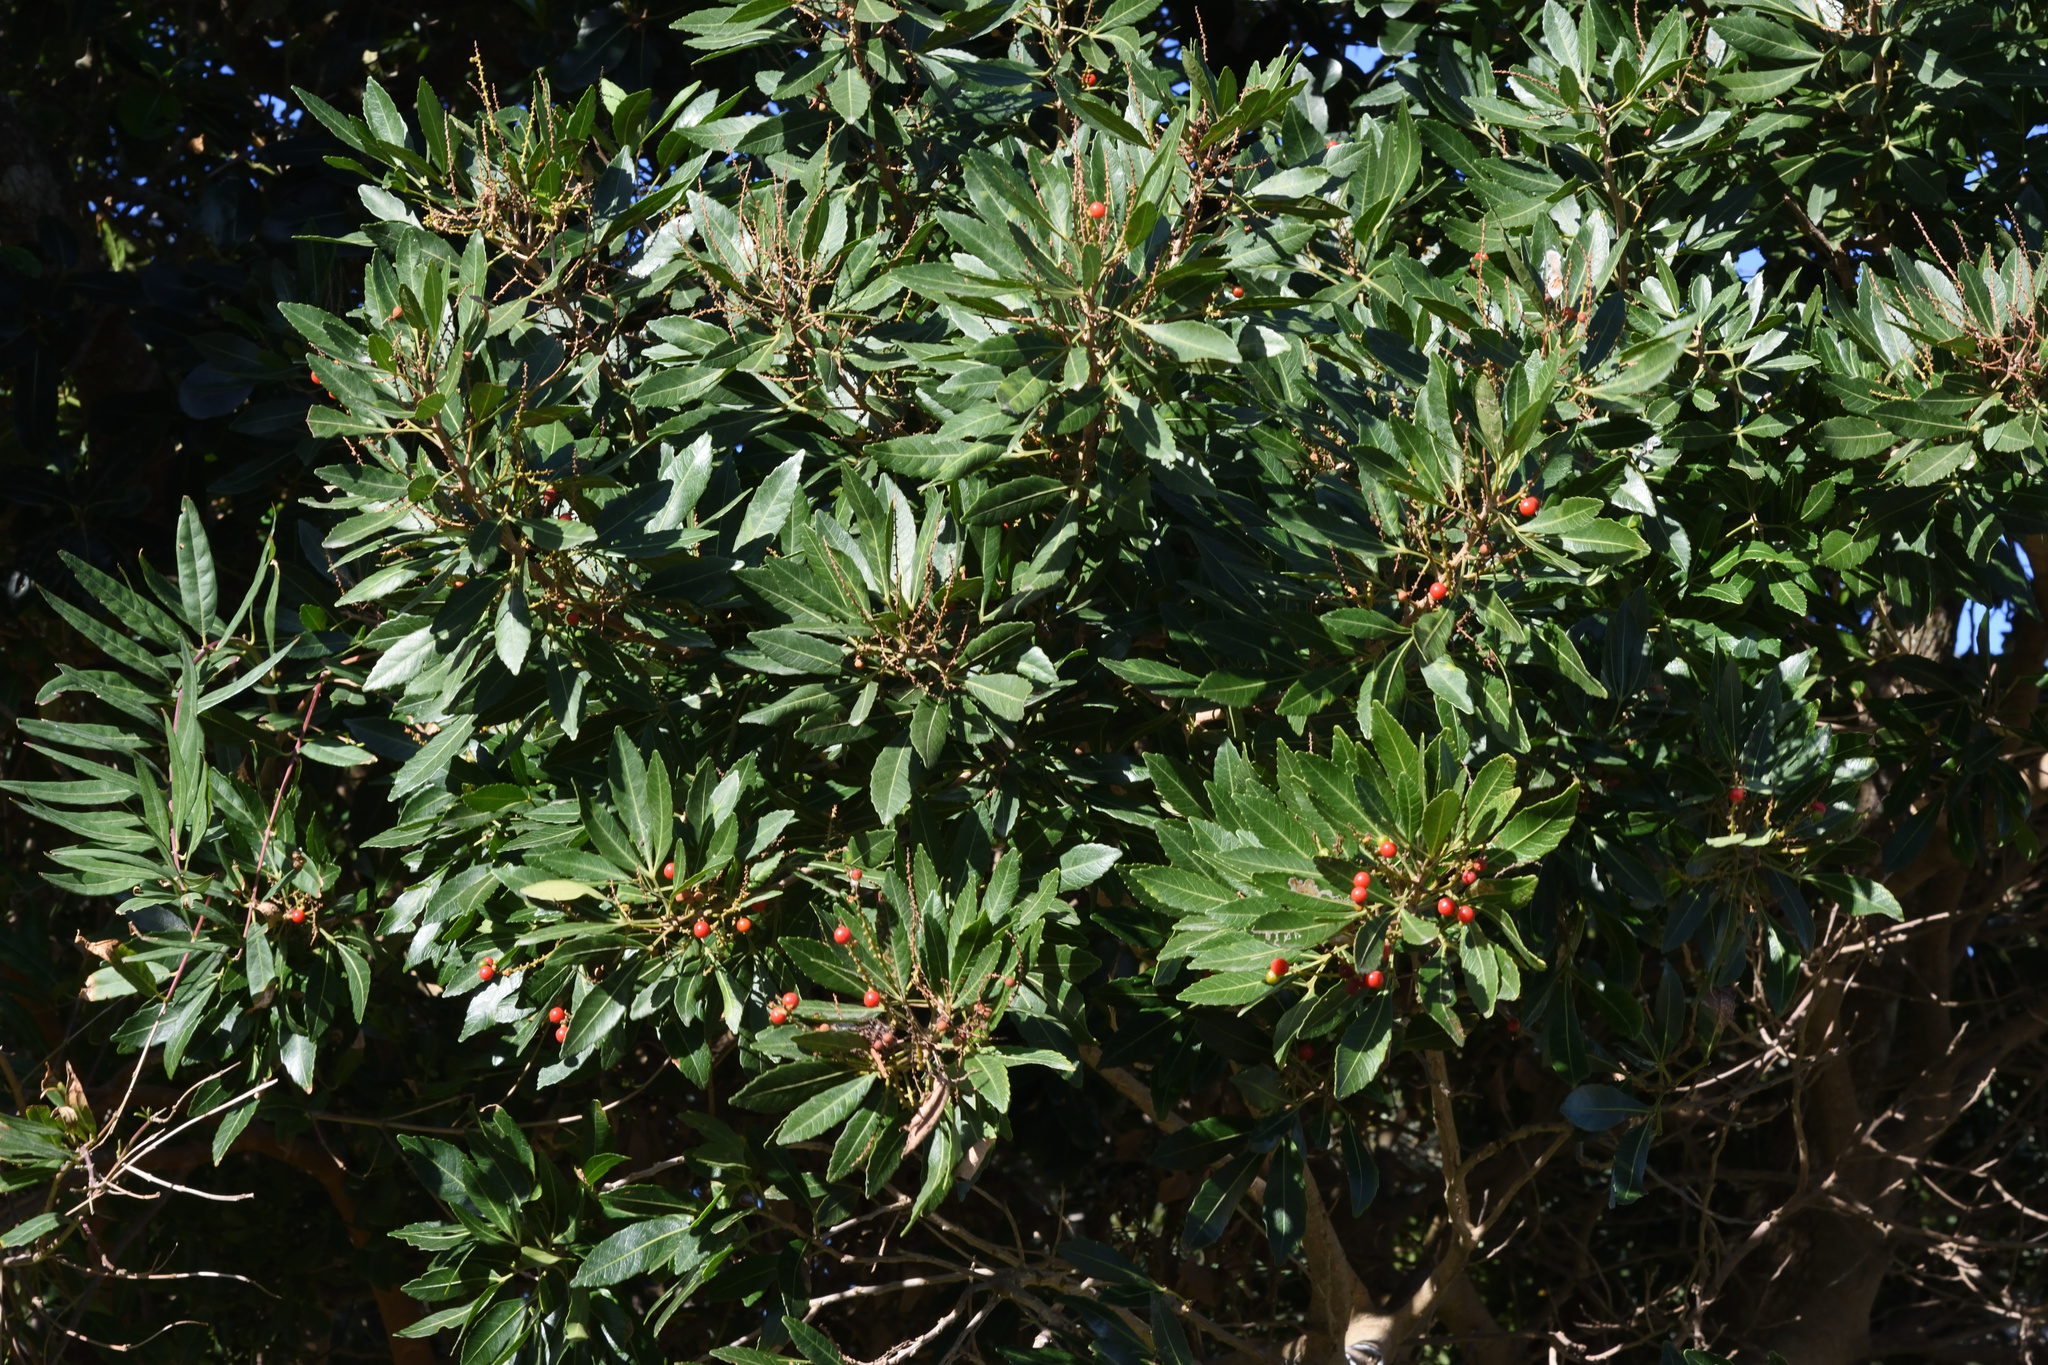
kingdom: Plantae
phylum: Tracheophyta
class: Magnoliopsida
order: Sapindales
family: Sapindaceae
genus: Allophylus
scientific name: Allophylus natalensis
